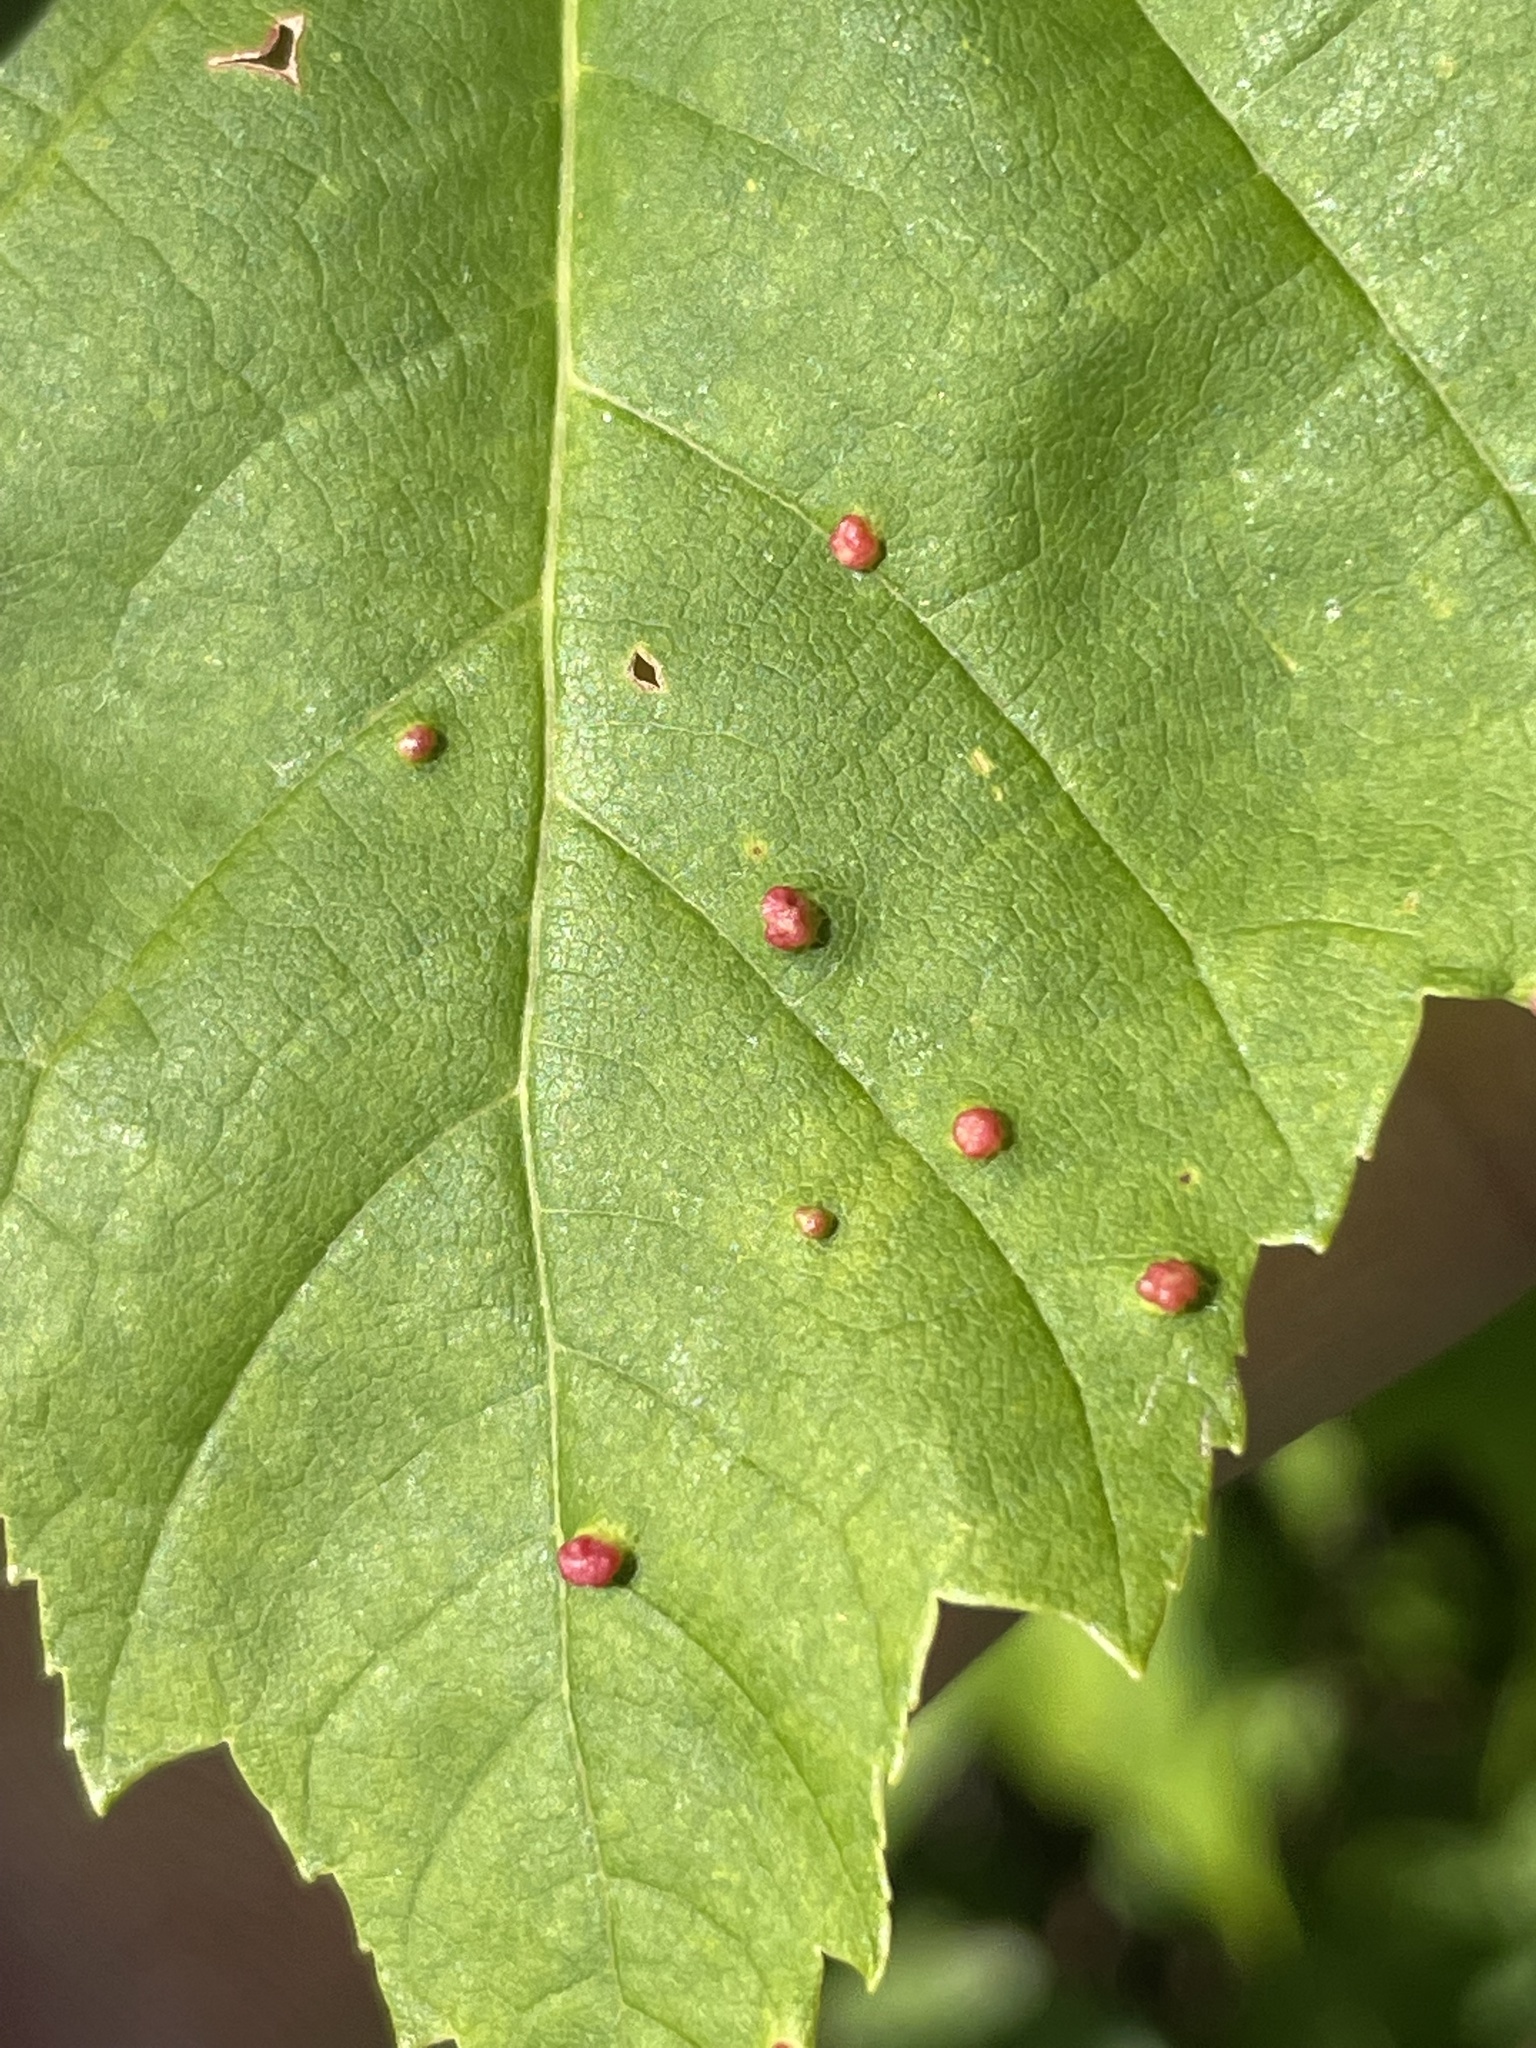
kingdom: Animalia
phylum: Arthropoda
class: Arachnida
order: Trombidiformes
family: Eriophyidae
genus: Vasates
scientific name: Vasates quadripedes
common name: Maple bladder gall mite
